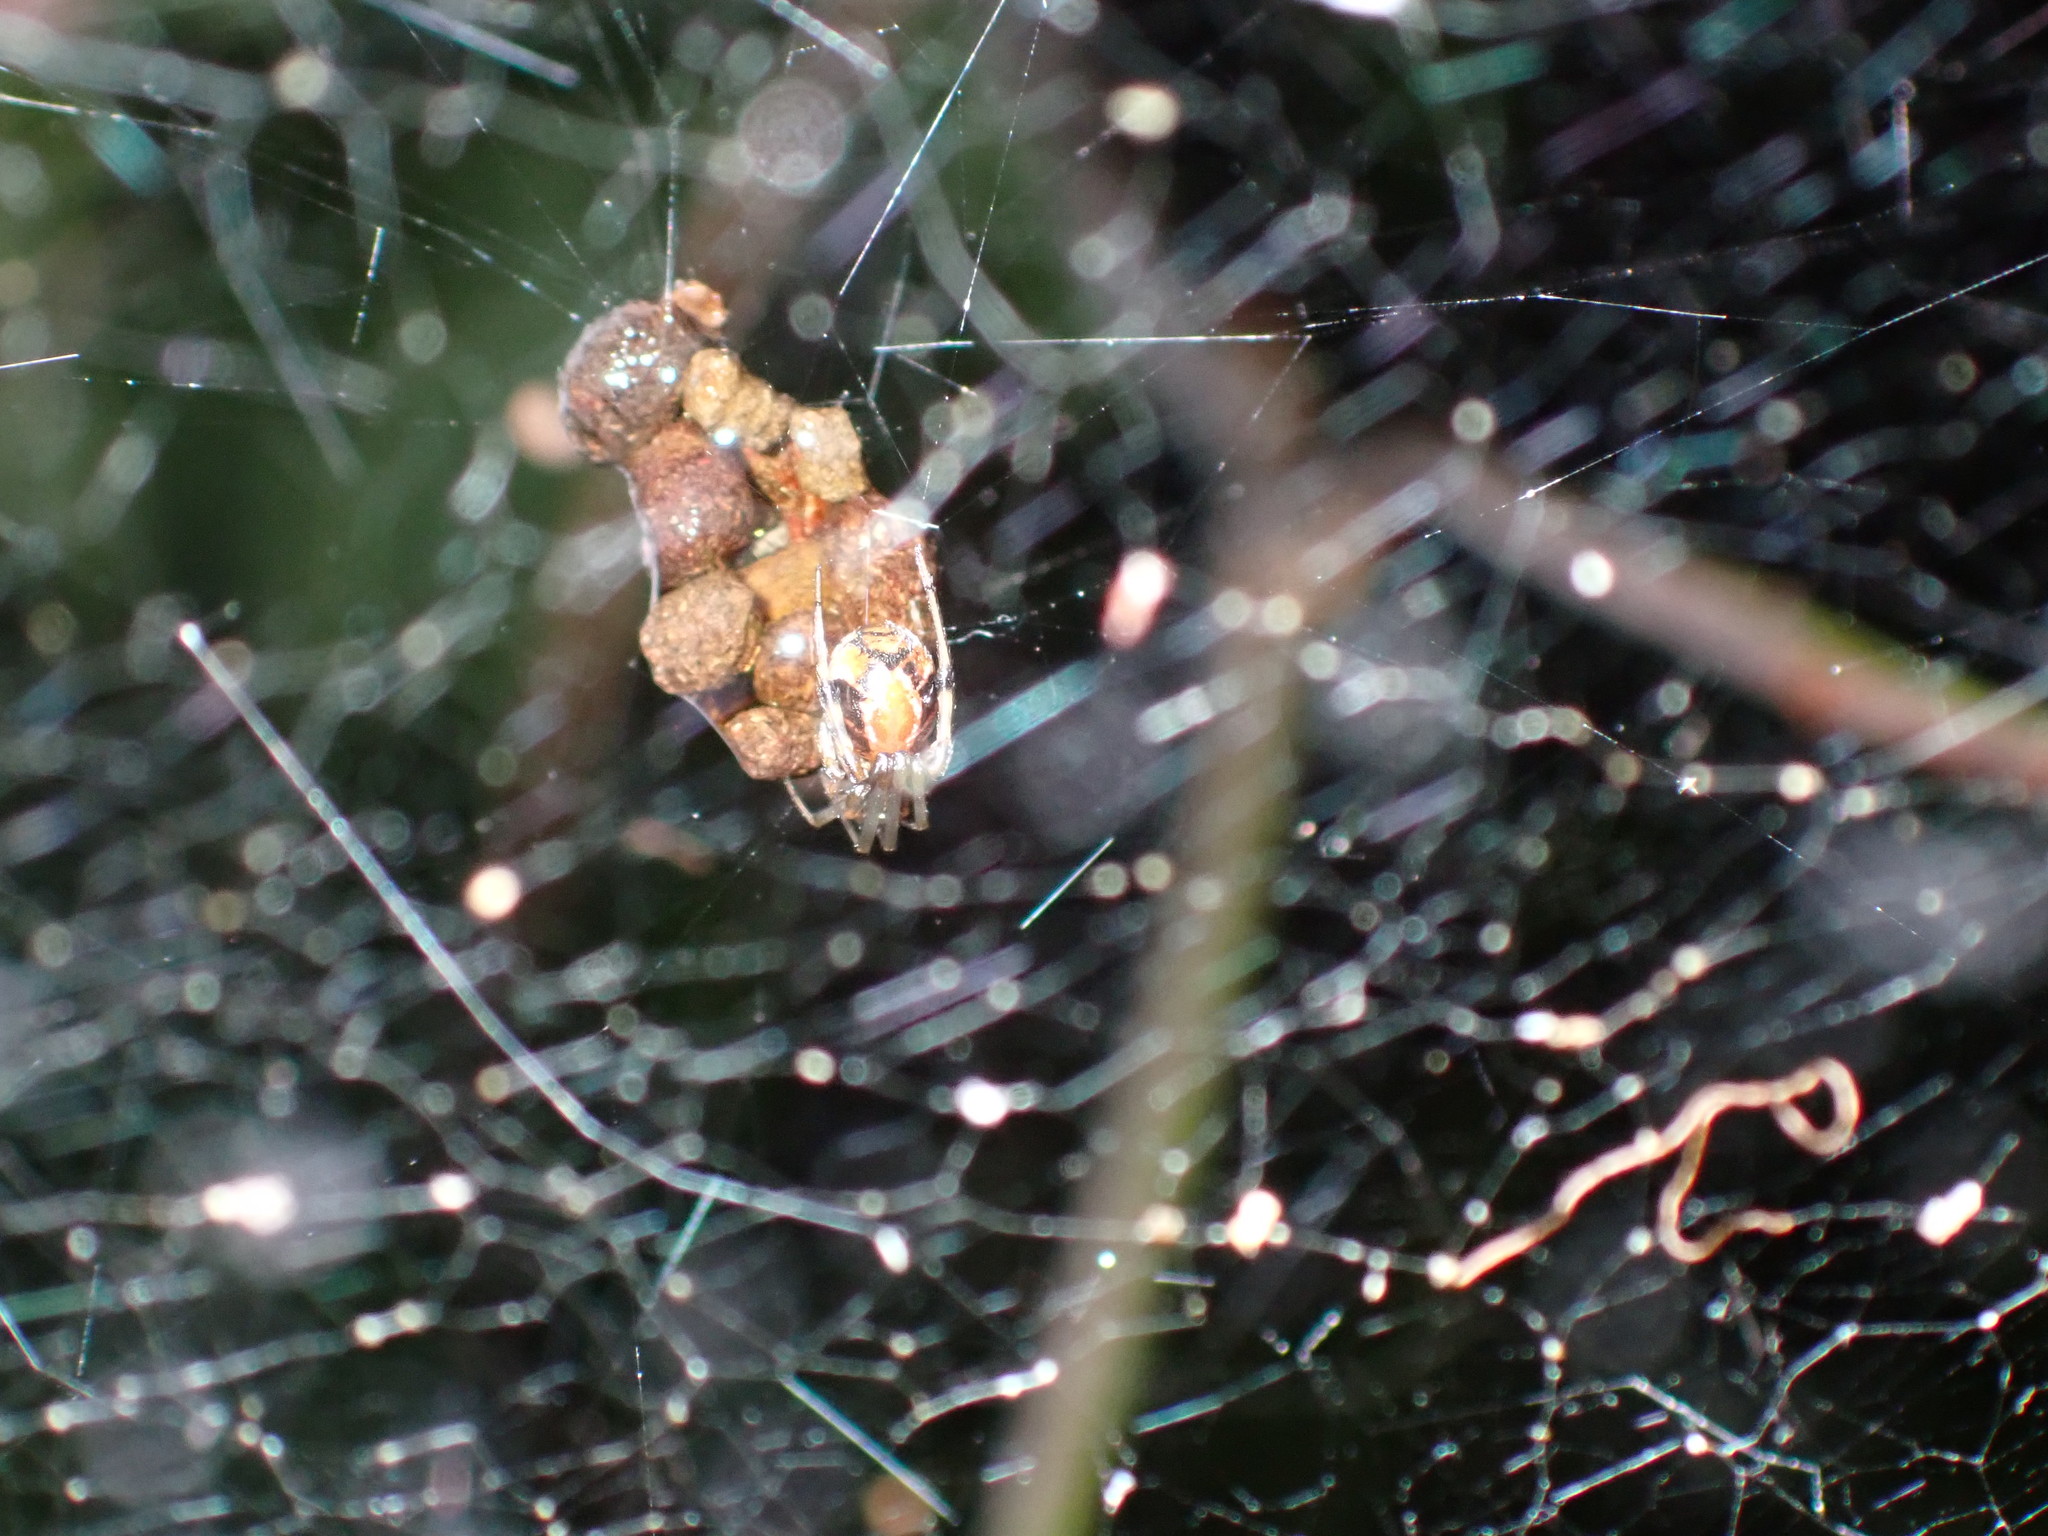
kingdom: Animalia
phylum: Arthropoda
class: Arachnida
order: Araneae
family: Theridiidae
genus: Nihonhimea
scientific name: Nihonhimea mundula
